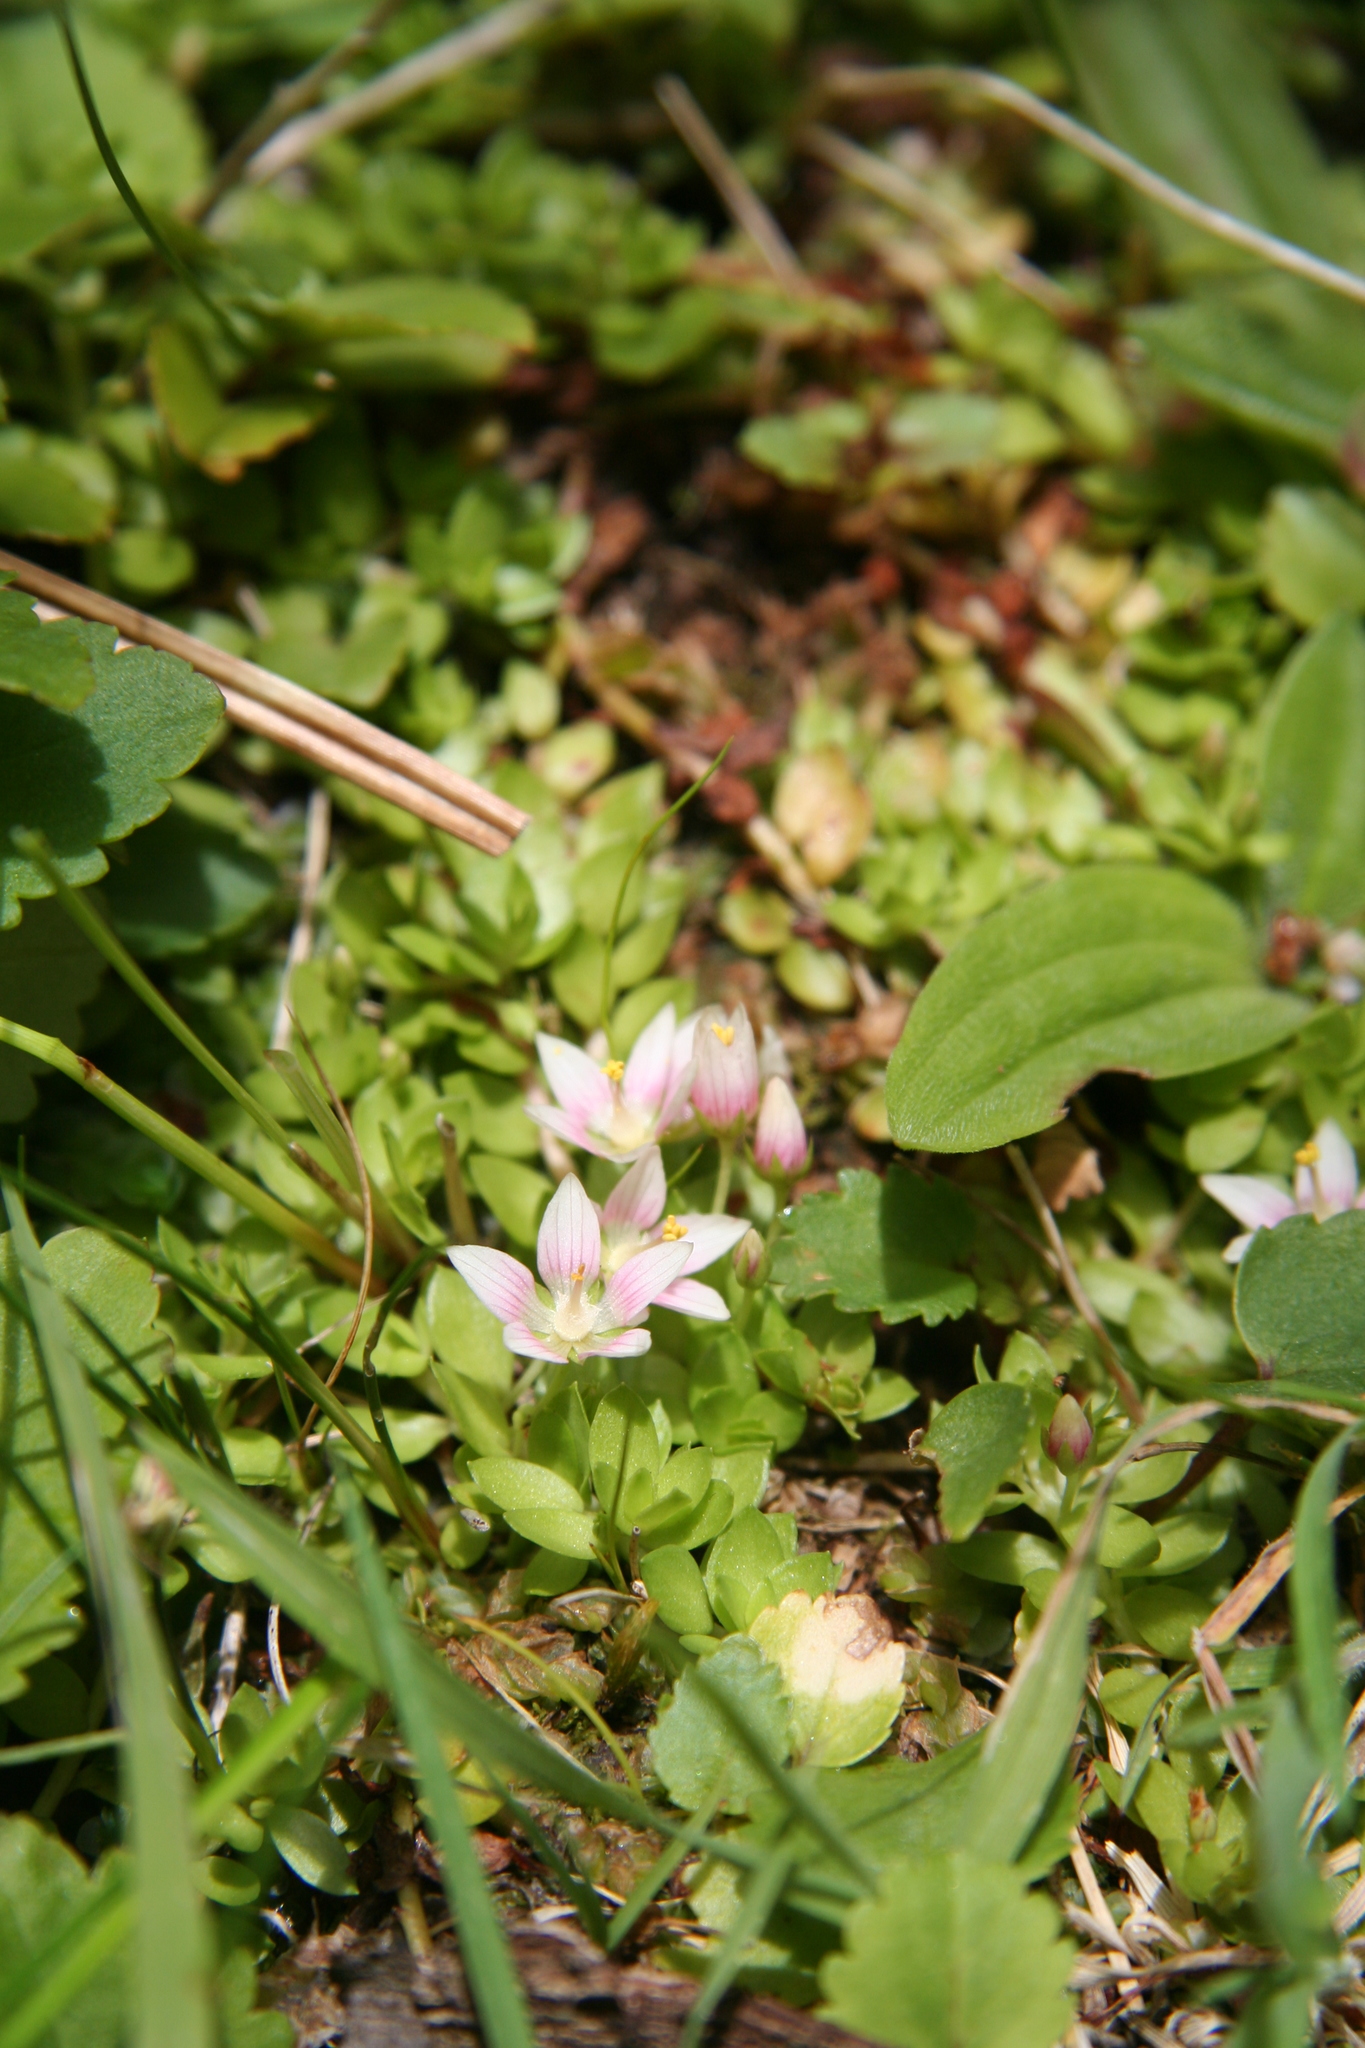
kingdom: Plantae
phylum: Tracheophyta
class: Magnoliopsida
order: Ericales
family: Primulaceae
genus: Lysimachia
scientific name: Lysimachia amoena
